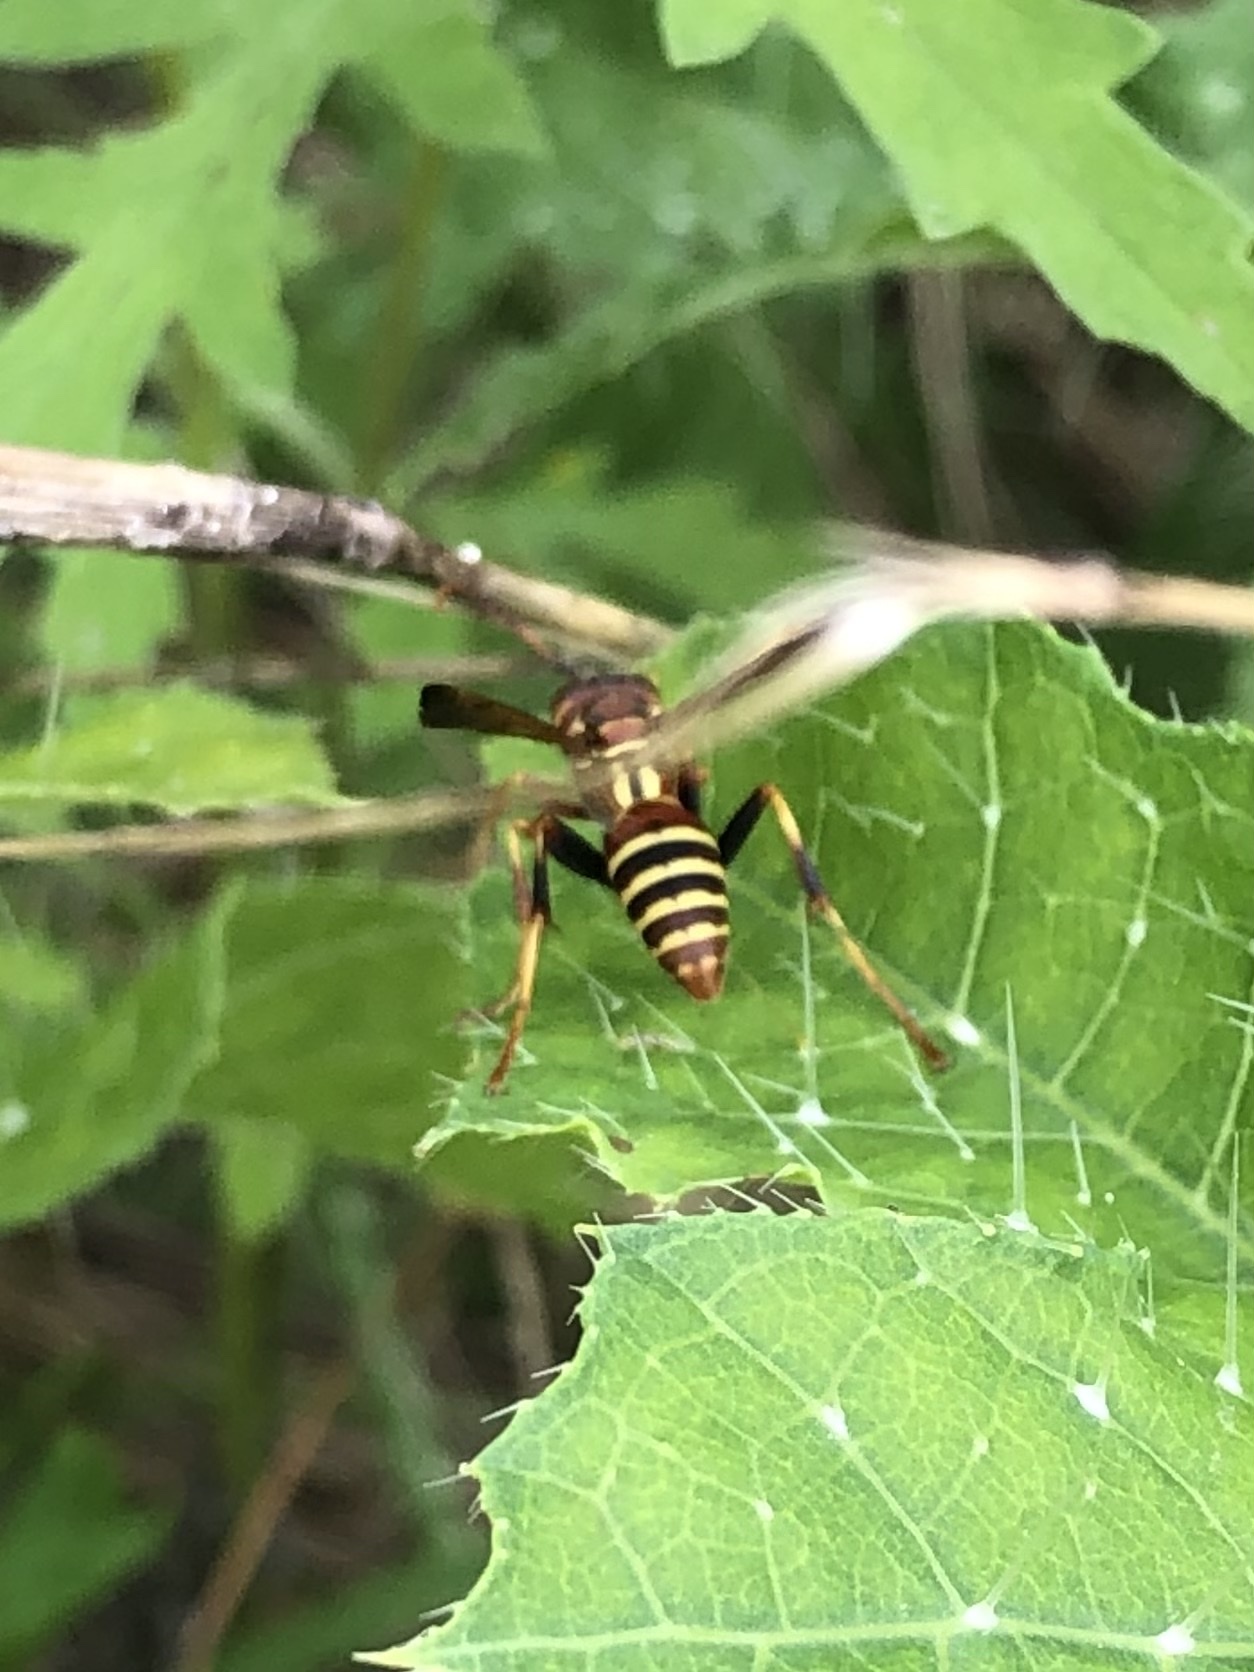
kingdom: Animalia
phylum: Arthropoda
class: Insecta
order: Hymenoptera
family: Eumenidae
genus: Polistes
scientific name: Polistes dorsalis
